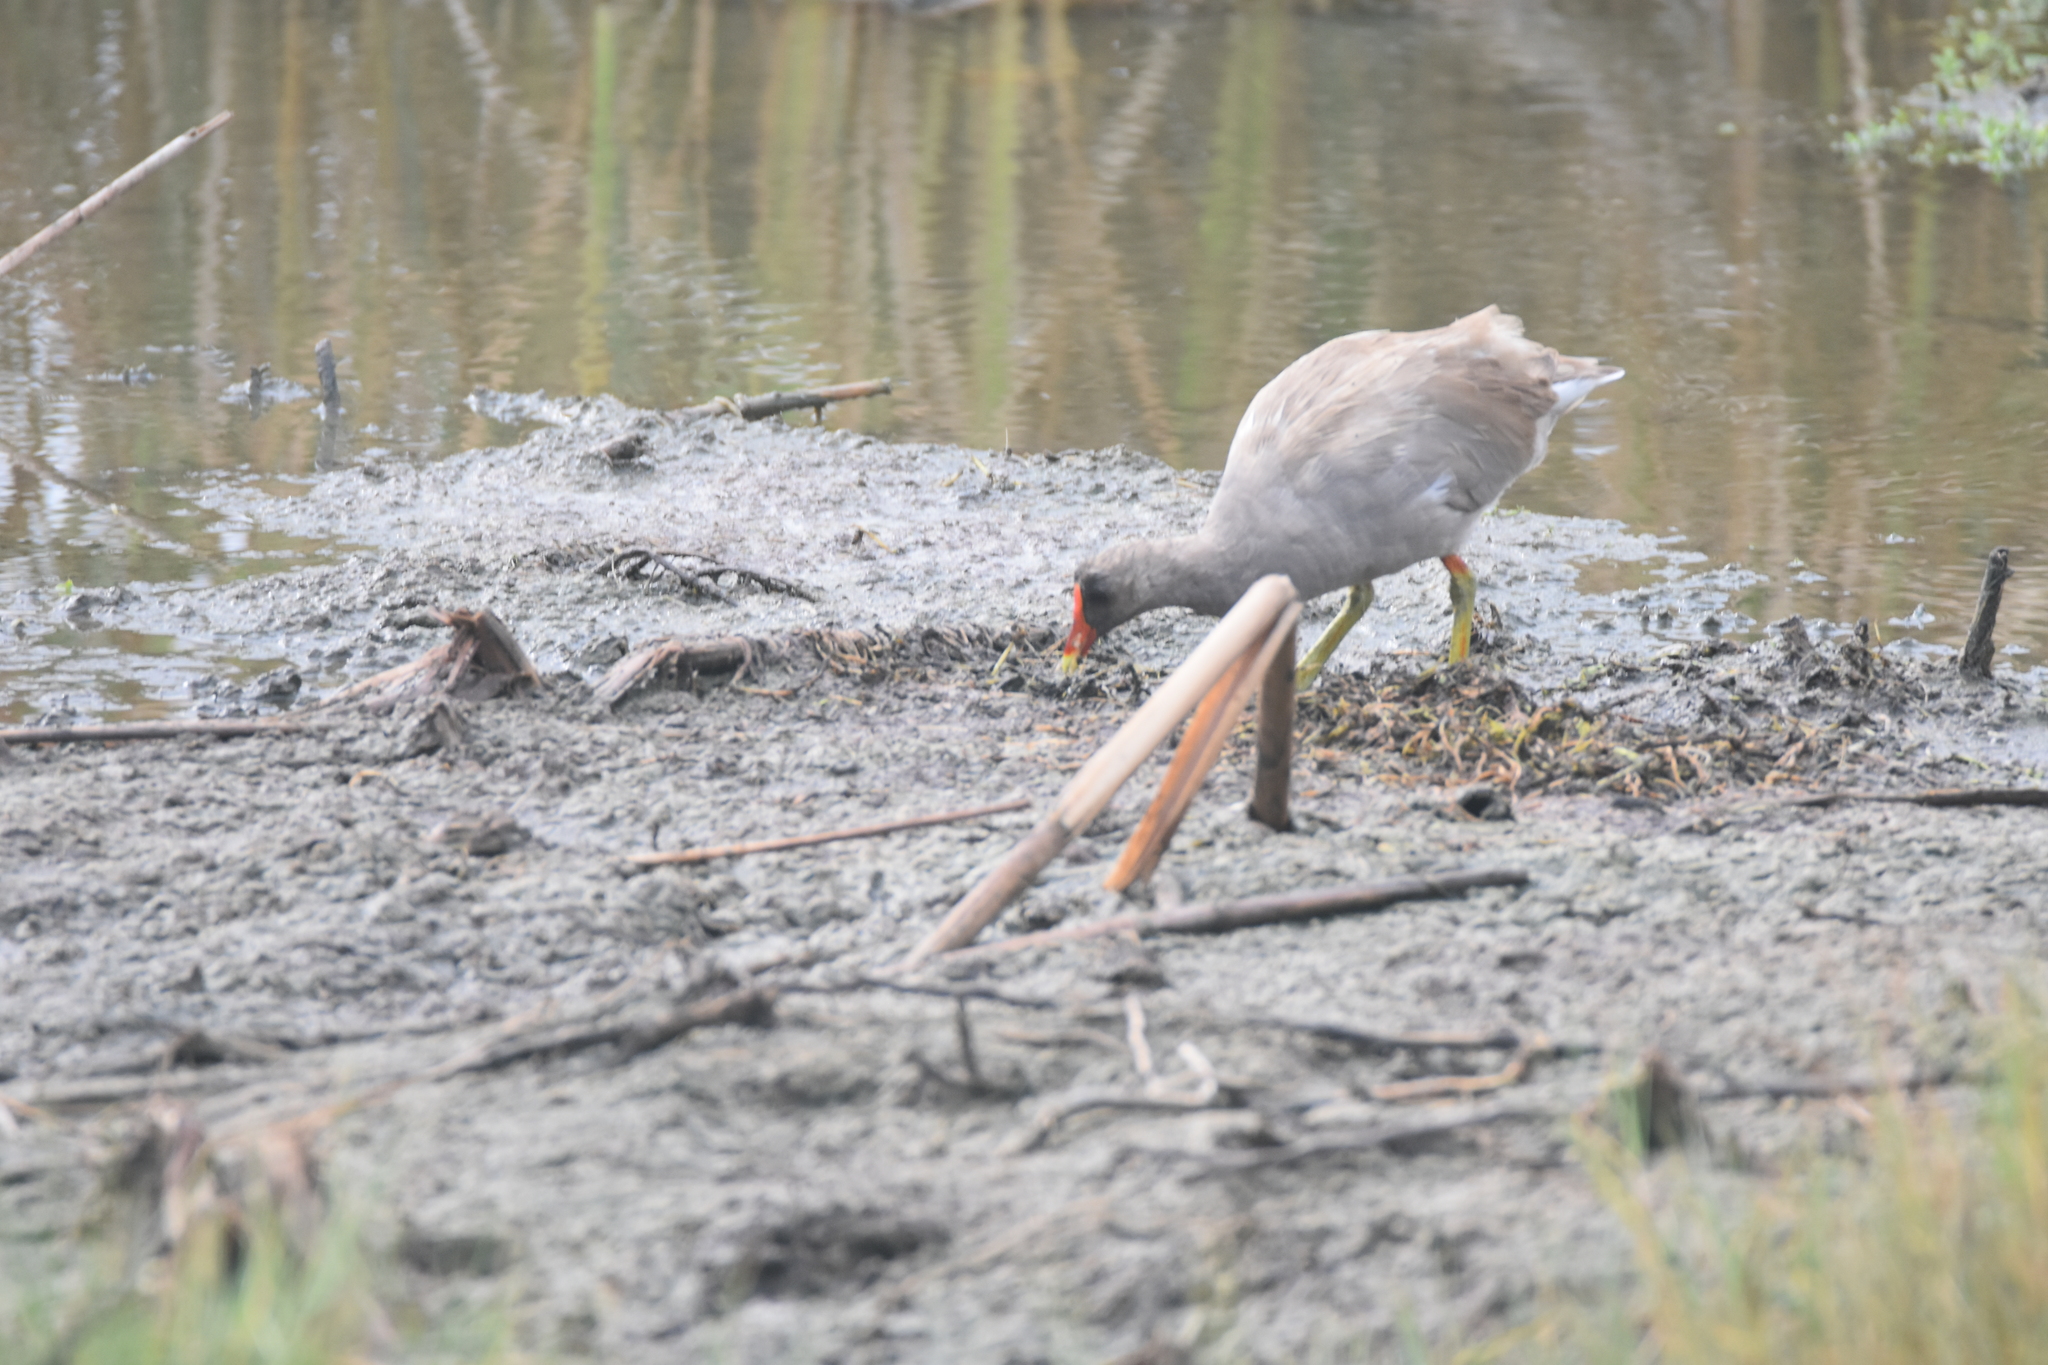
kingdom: Animalia
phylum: Chordata
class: Aves
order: Gruiformes
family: Rallidae
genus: Gallinula
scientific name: Gallinula chloropus
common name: Common moorhen
